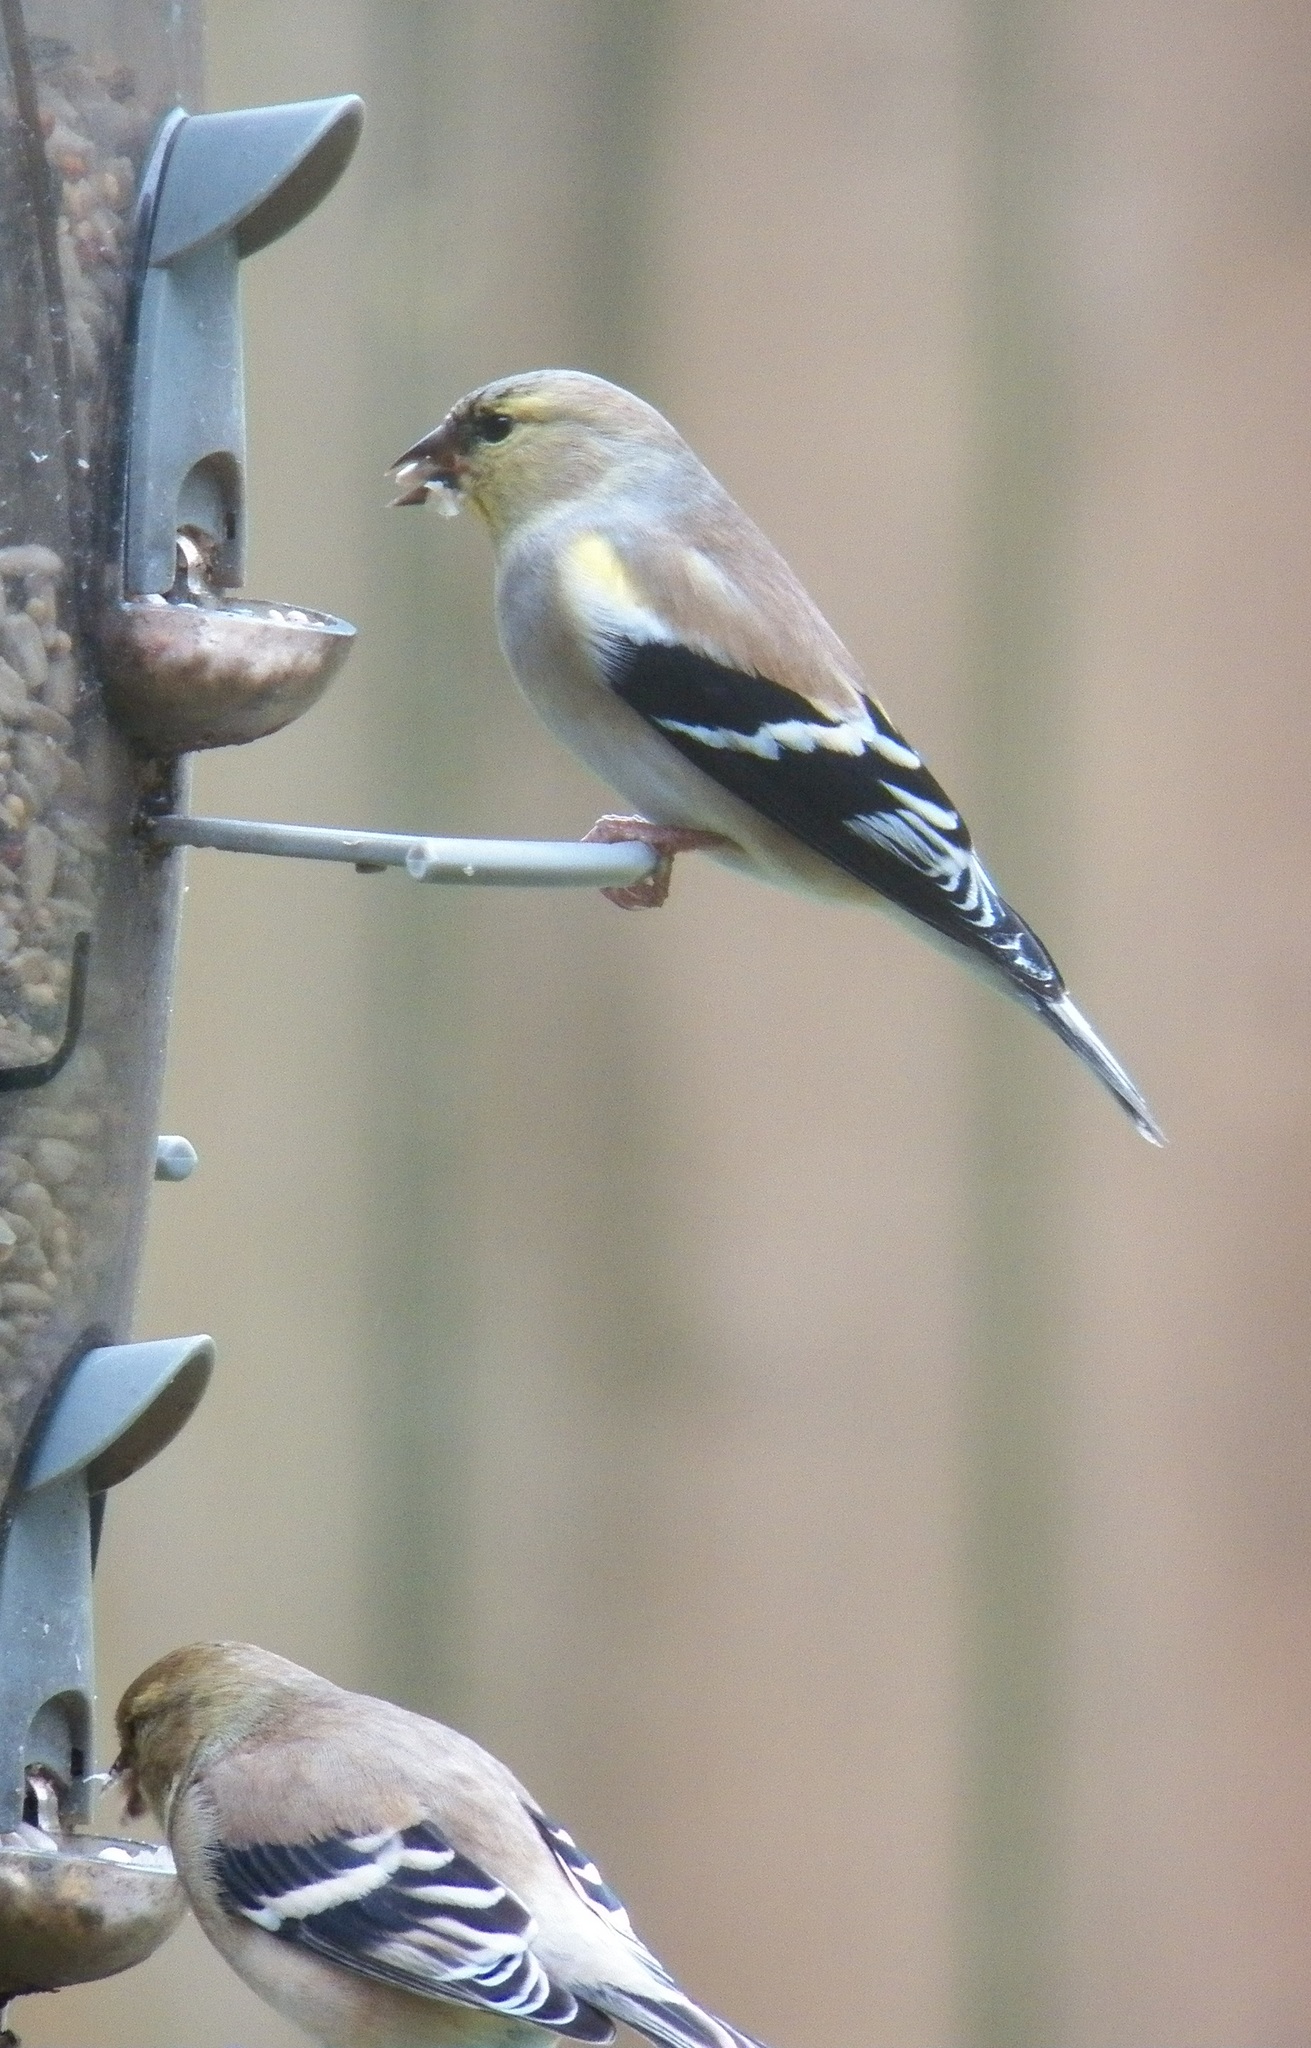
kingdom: Animalia
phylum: Chordata
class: Aves
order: Passeriformes
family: Fringillidae
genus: Spinus
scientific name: Spinus tristis
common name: American goldfinch
